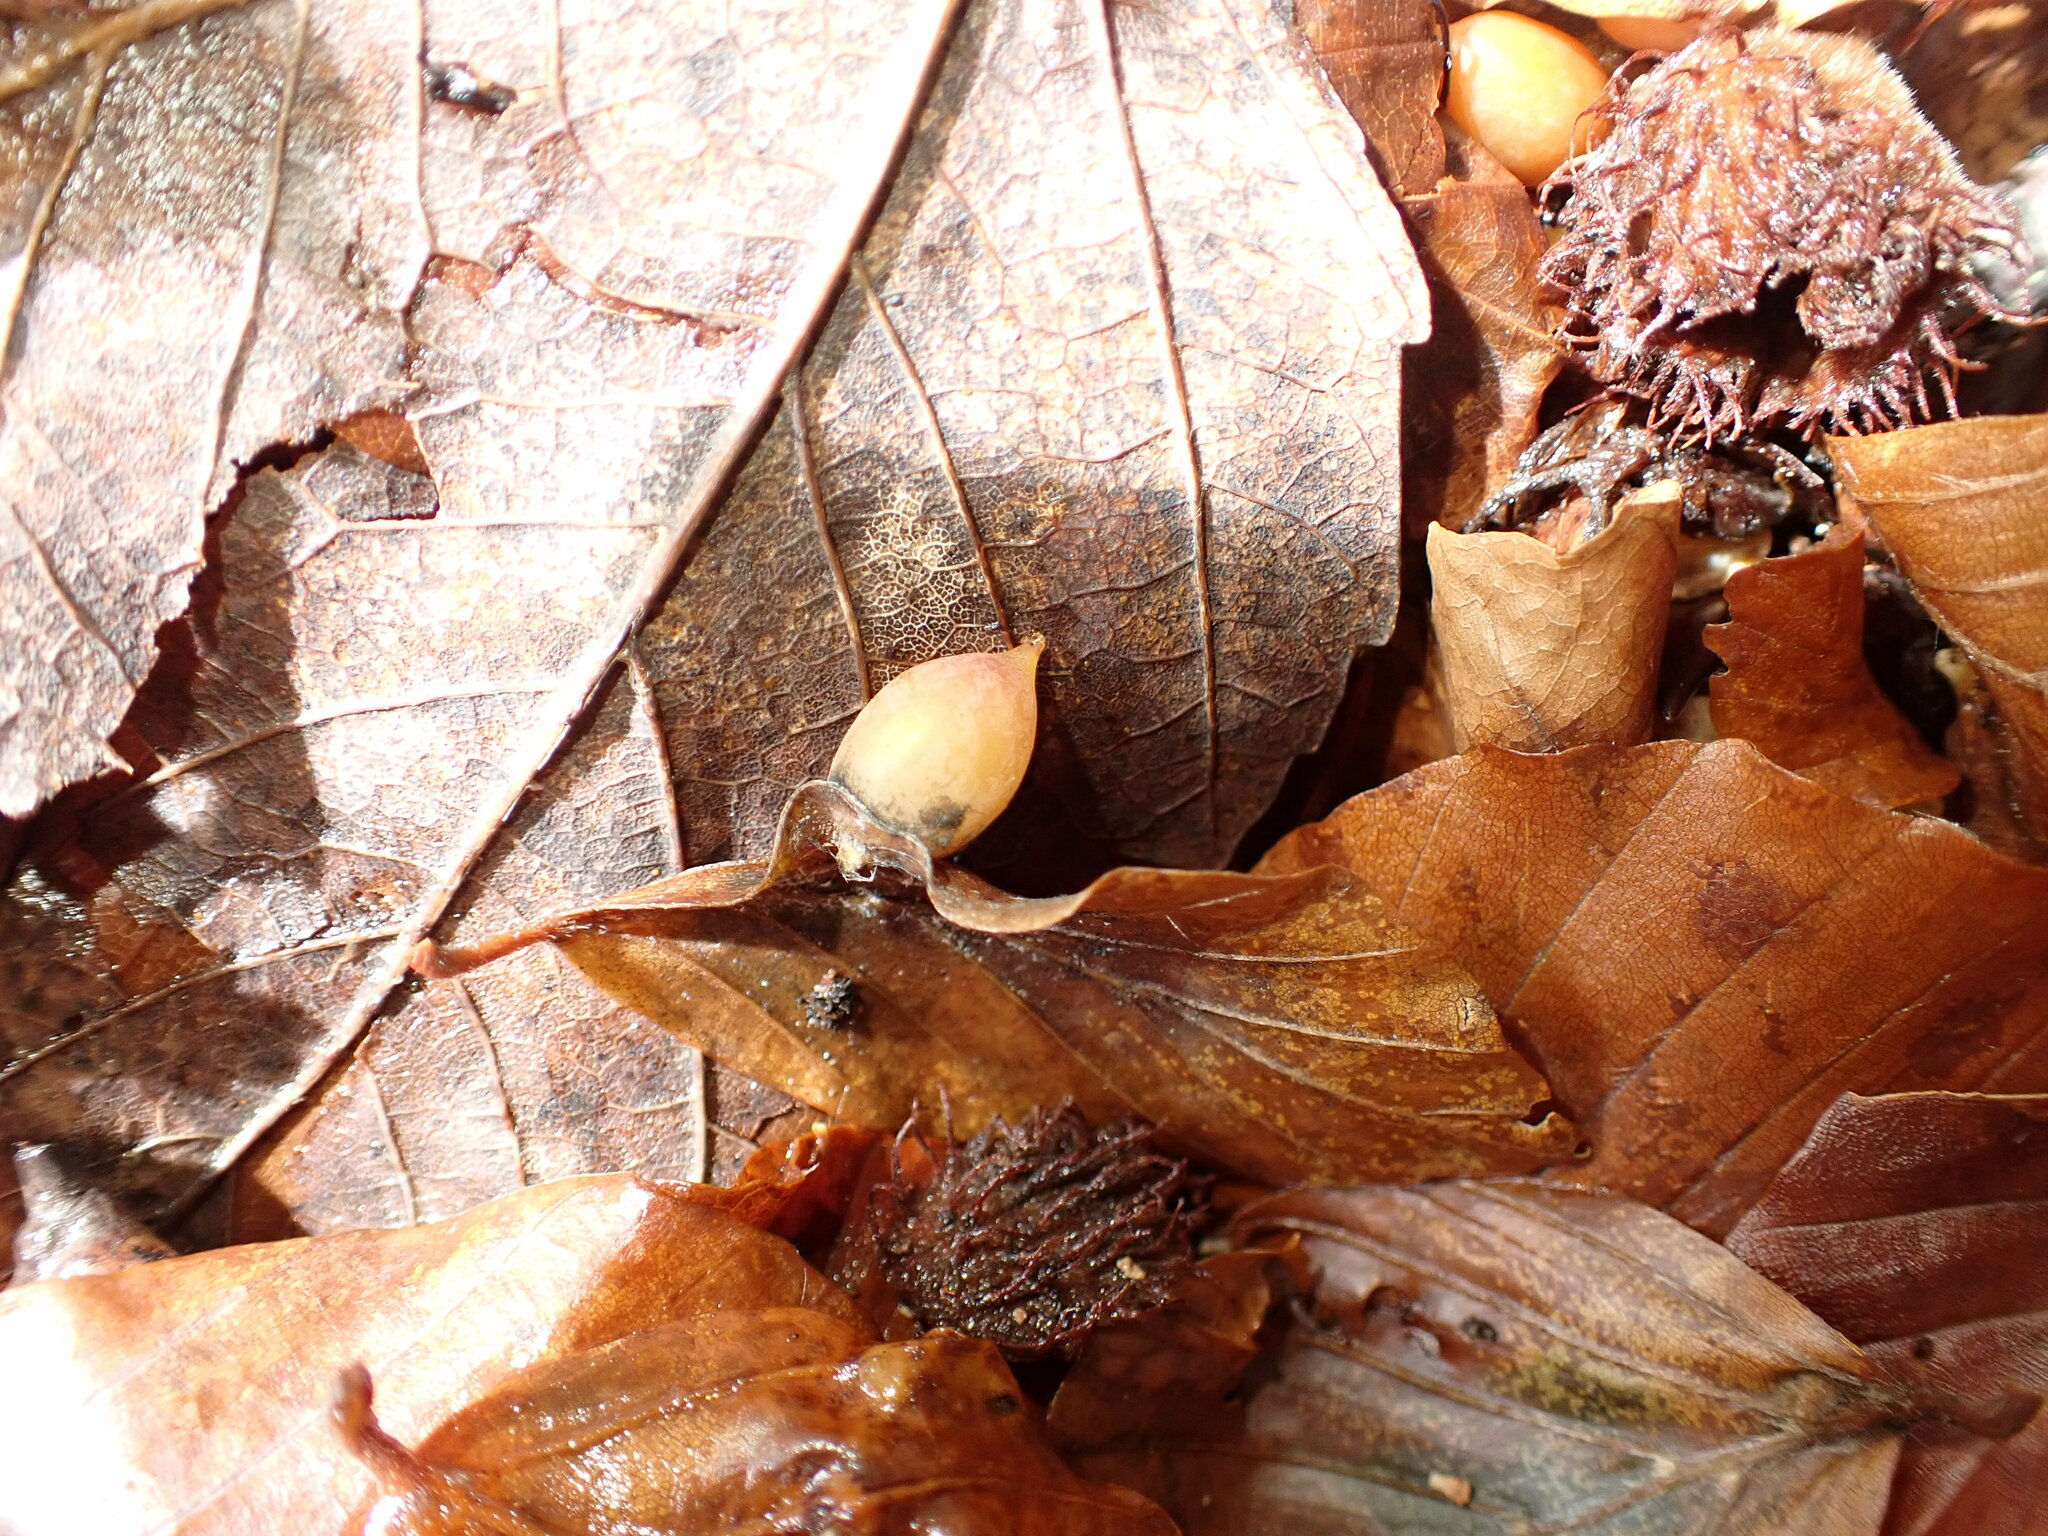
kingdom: Animalia
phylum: Arthropoda
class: Insecta
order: Diptera
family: Cecidomyiidae
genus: Mikiola
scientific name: Mikiola fagi
